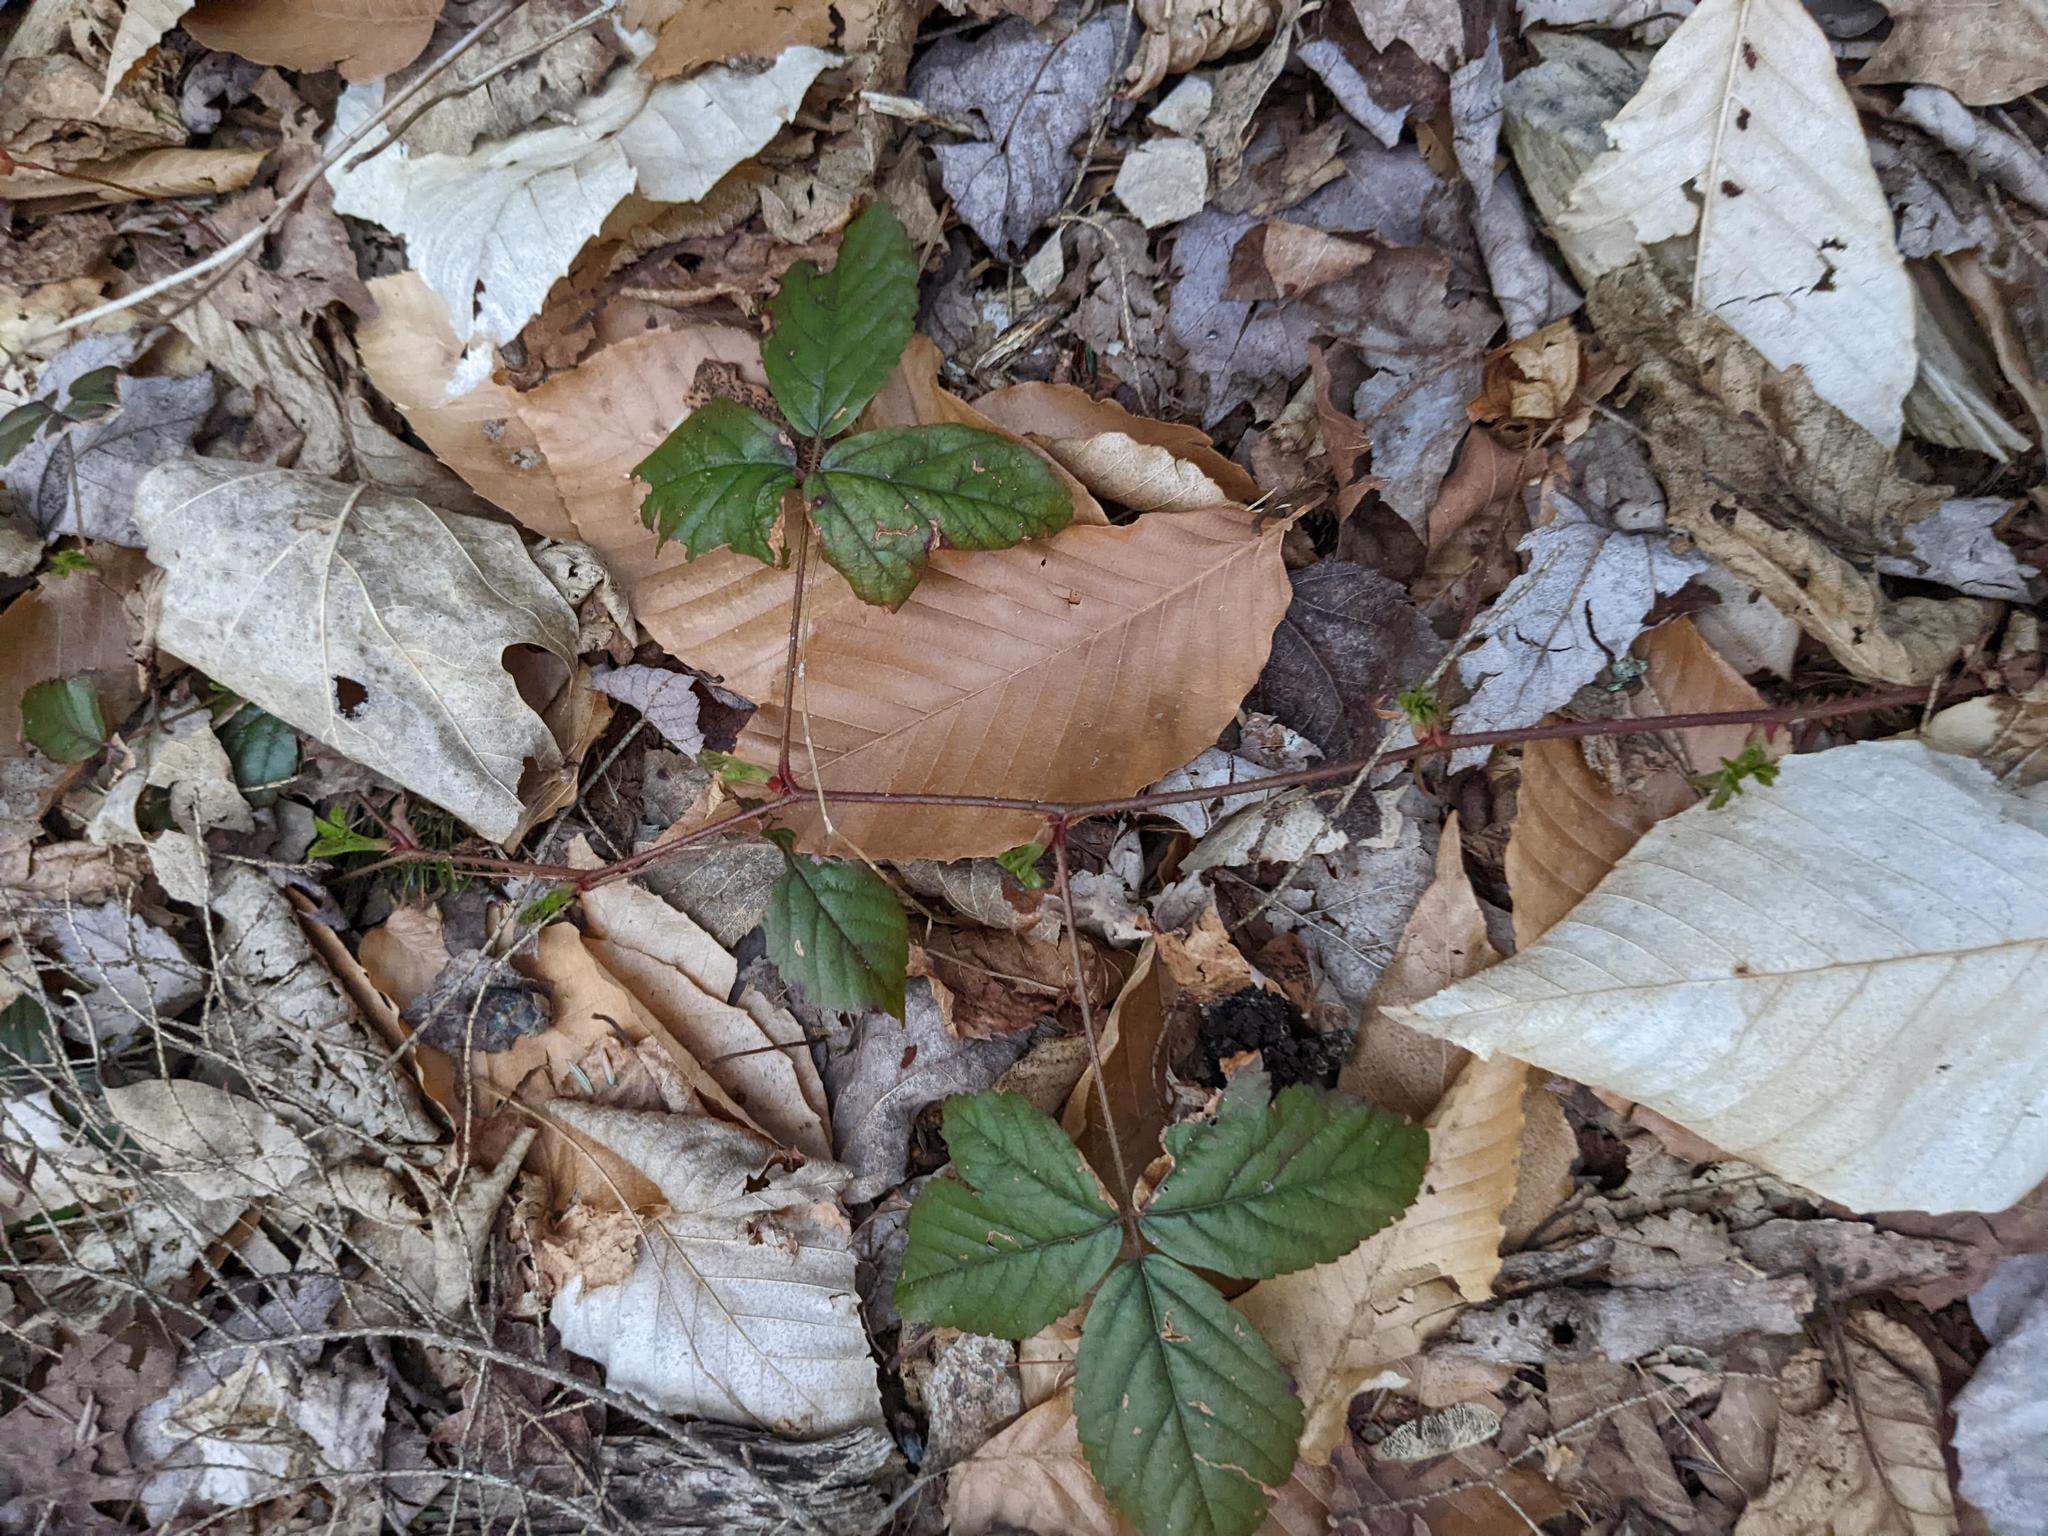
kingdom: Plantae
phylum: Tracheophyta
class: Magnoliopsida
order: Fagales
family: Fagaceae
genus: Fagus
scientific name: Fagus grandifolia
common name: American beech
